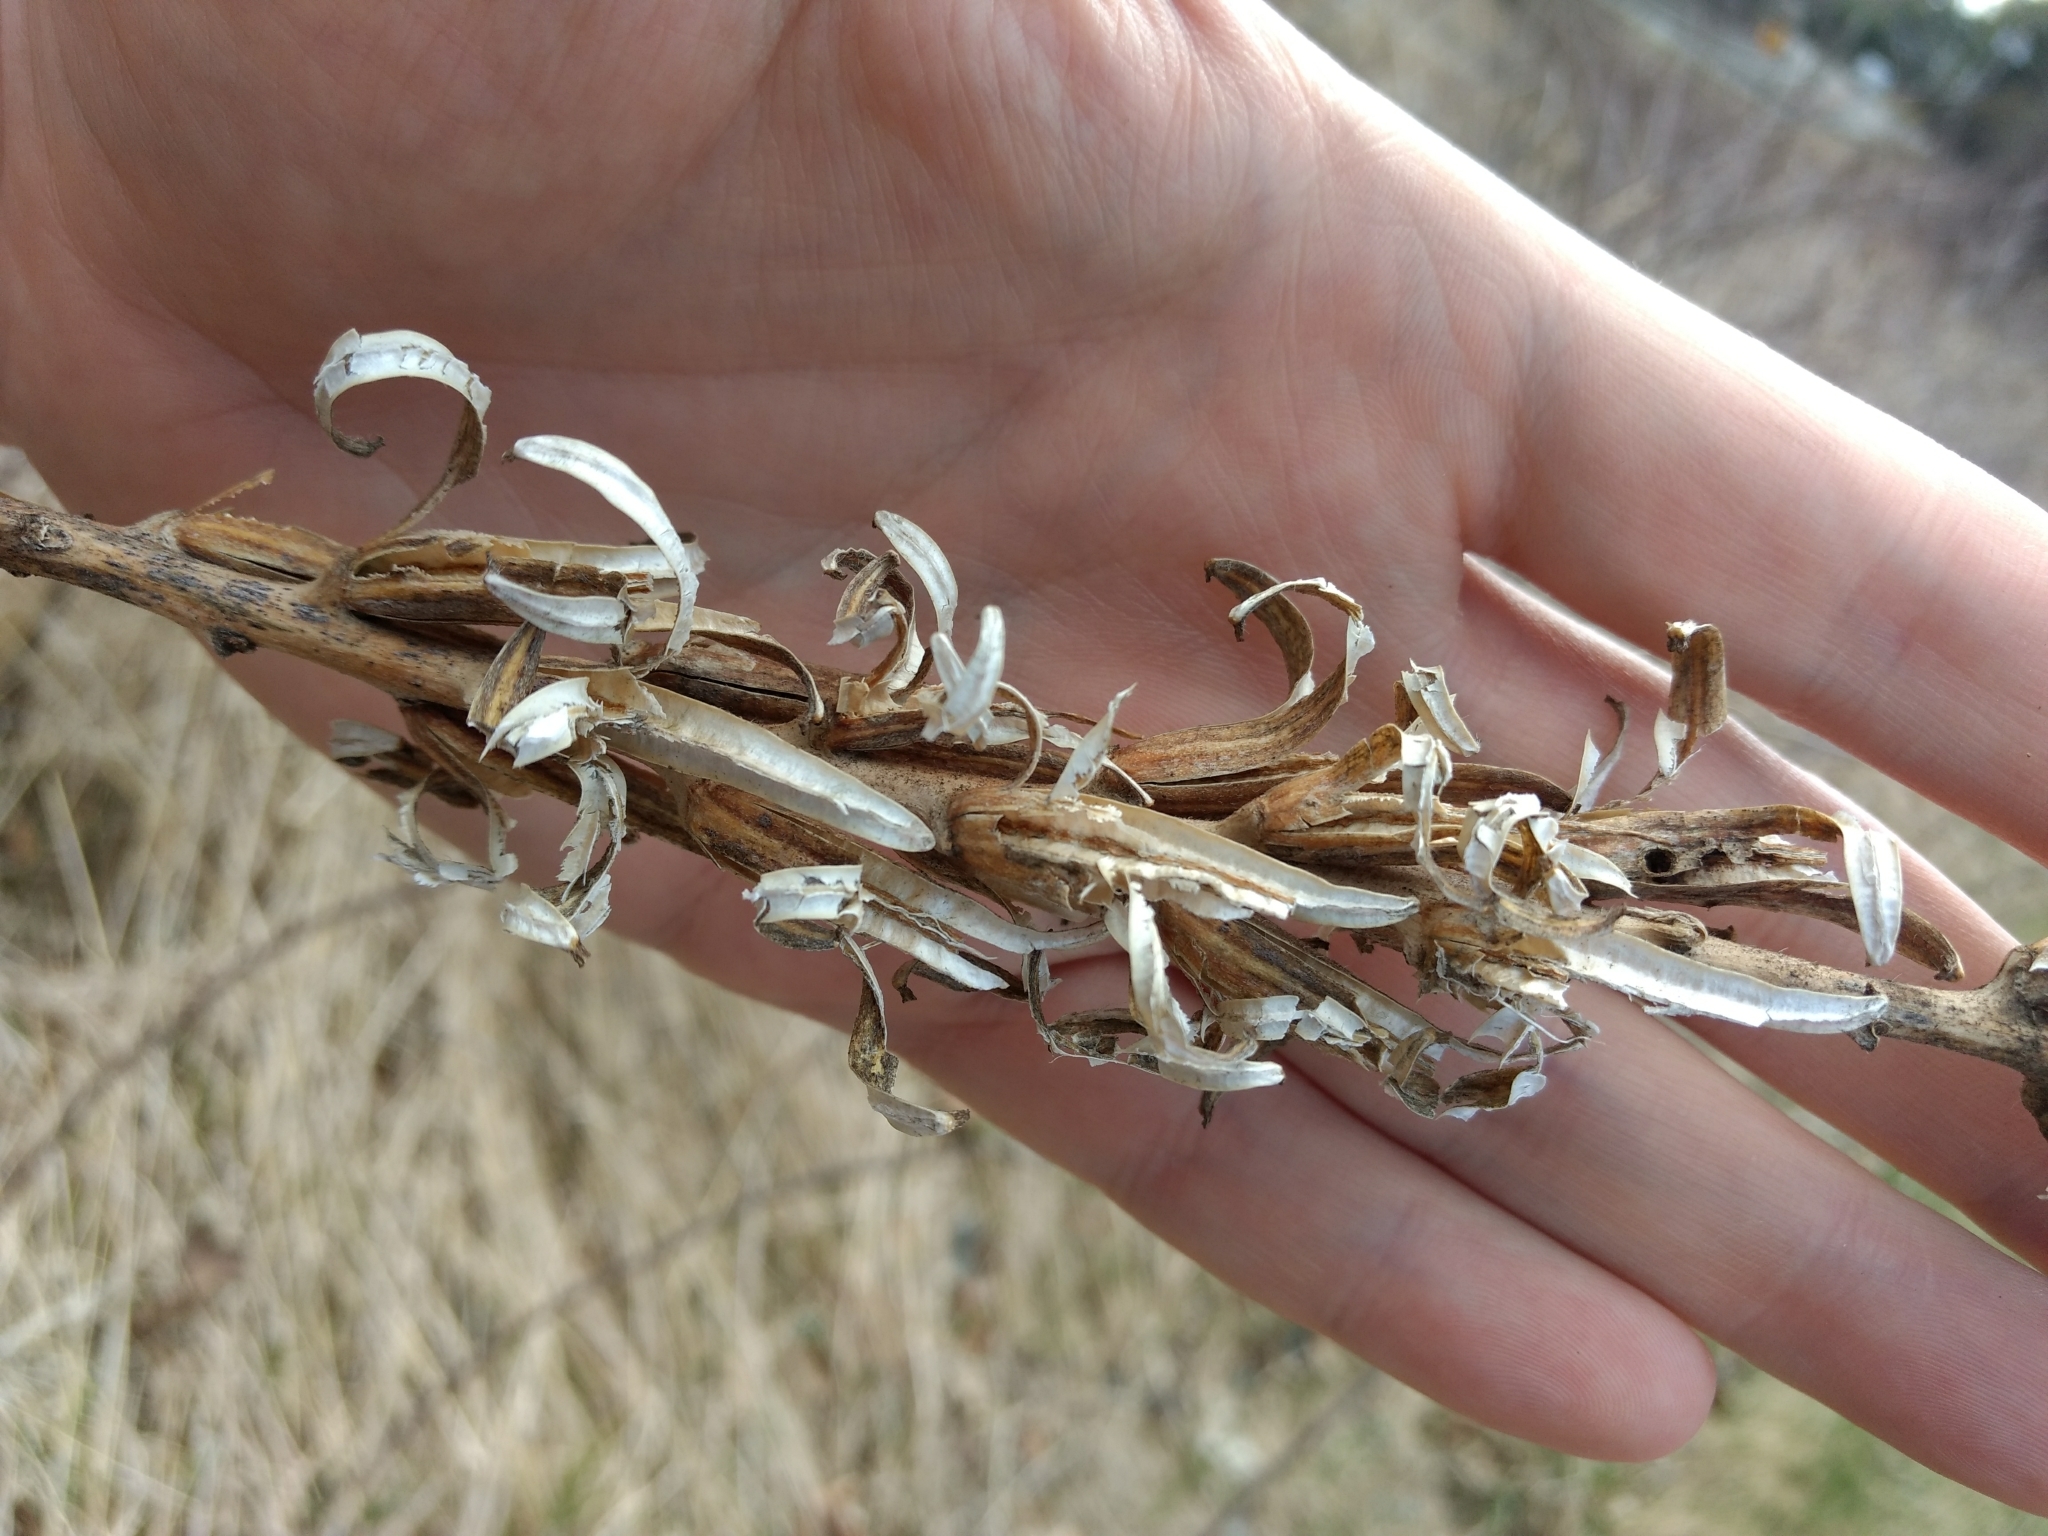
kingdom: Plantae
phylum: Tracheophyta
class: Magnoliopsida
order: Myrtales
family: Onagraceae
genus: Oenothera
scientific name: Oenothera biennis
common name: Common evening-primrose
